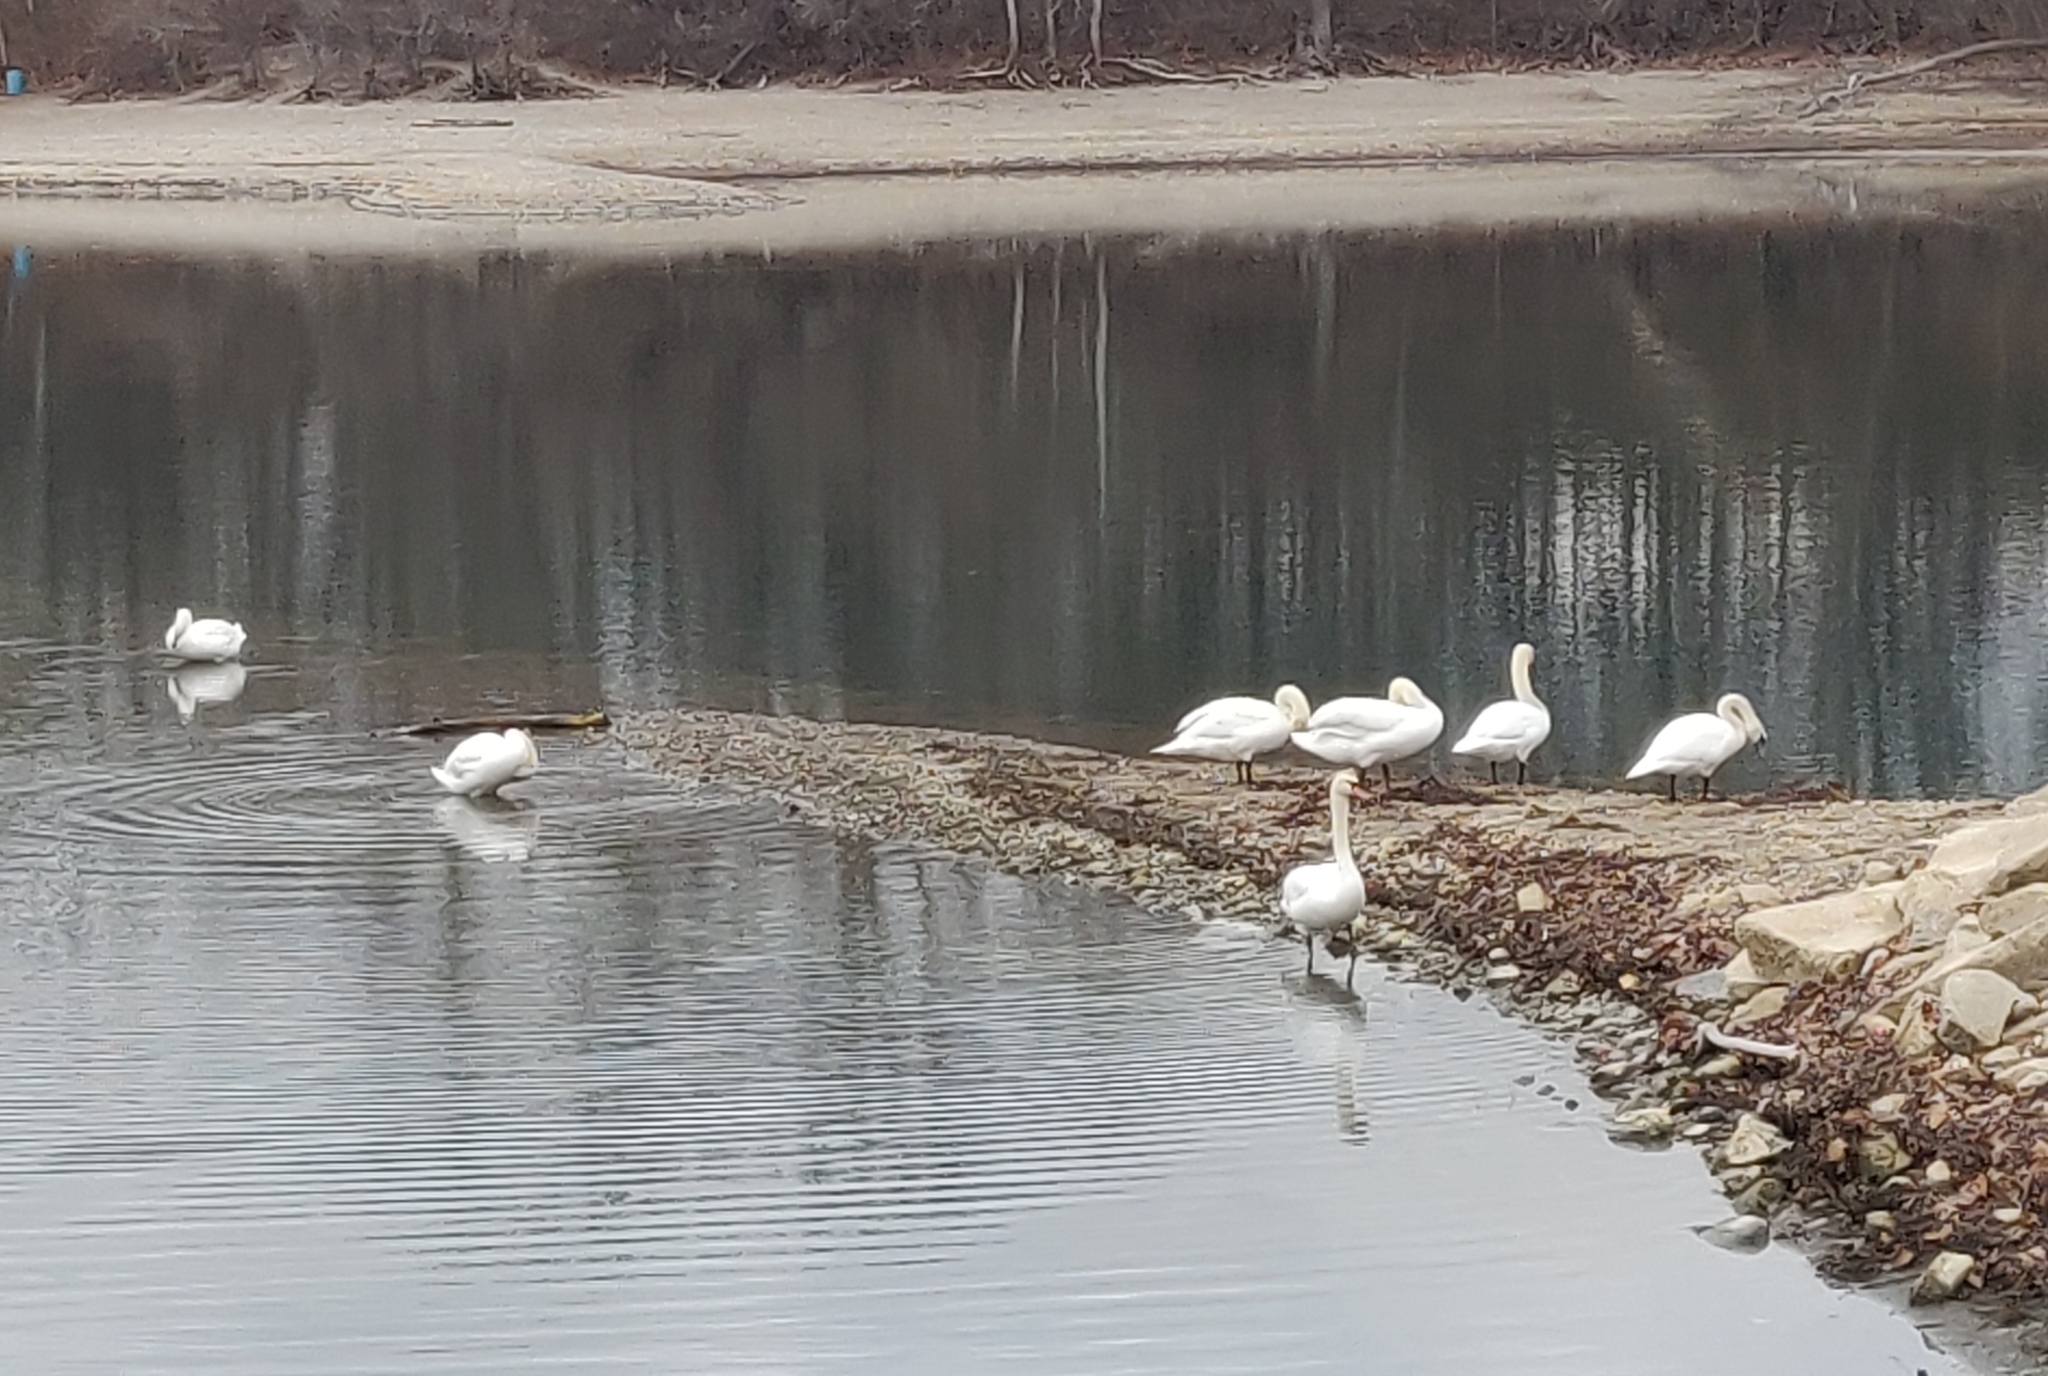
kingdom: Animalia
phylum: Chordata
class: Aves
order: Anseriformes
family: Anatidae
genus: Cygnus
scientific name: Cygnus olor
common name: Mute swan
